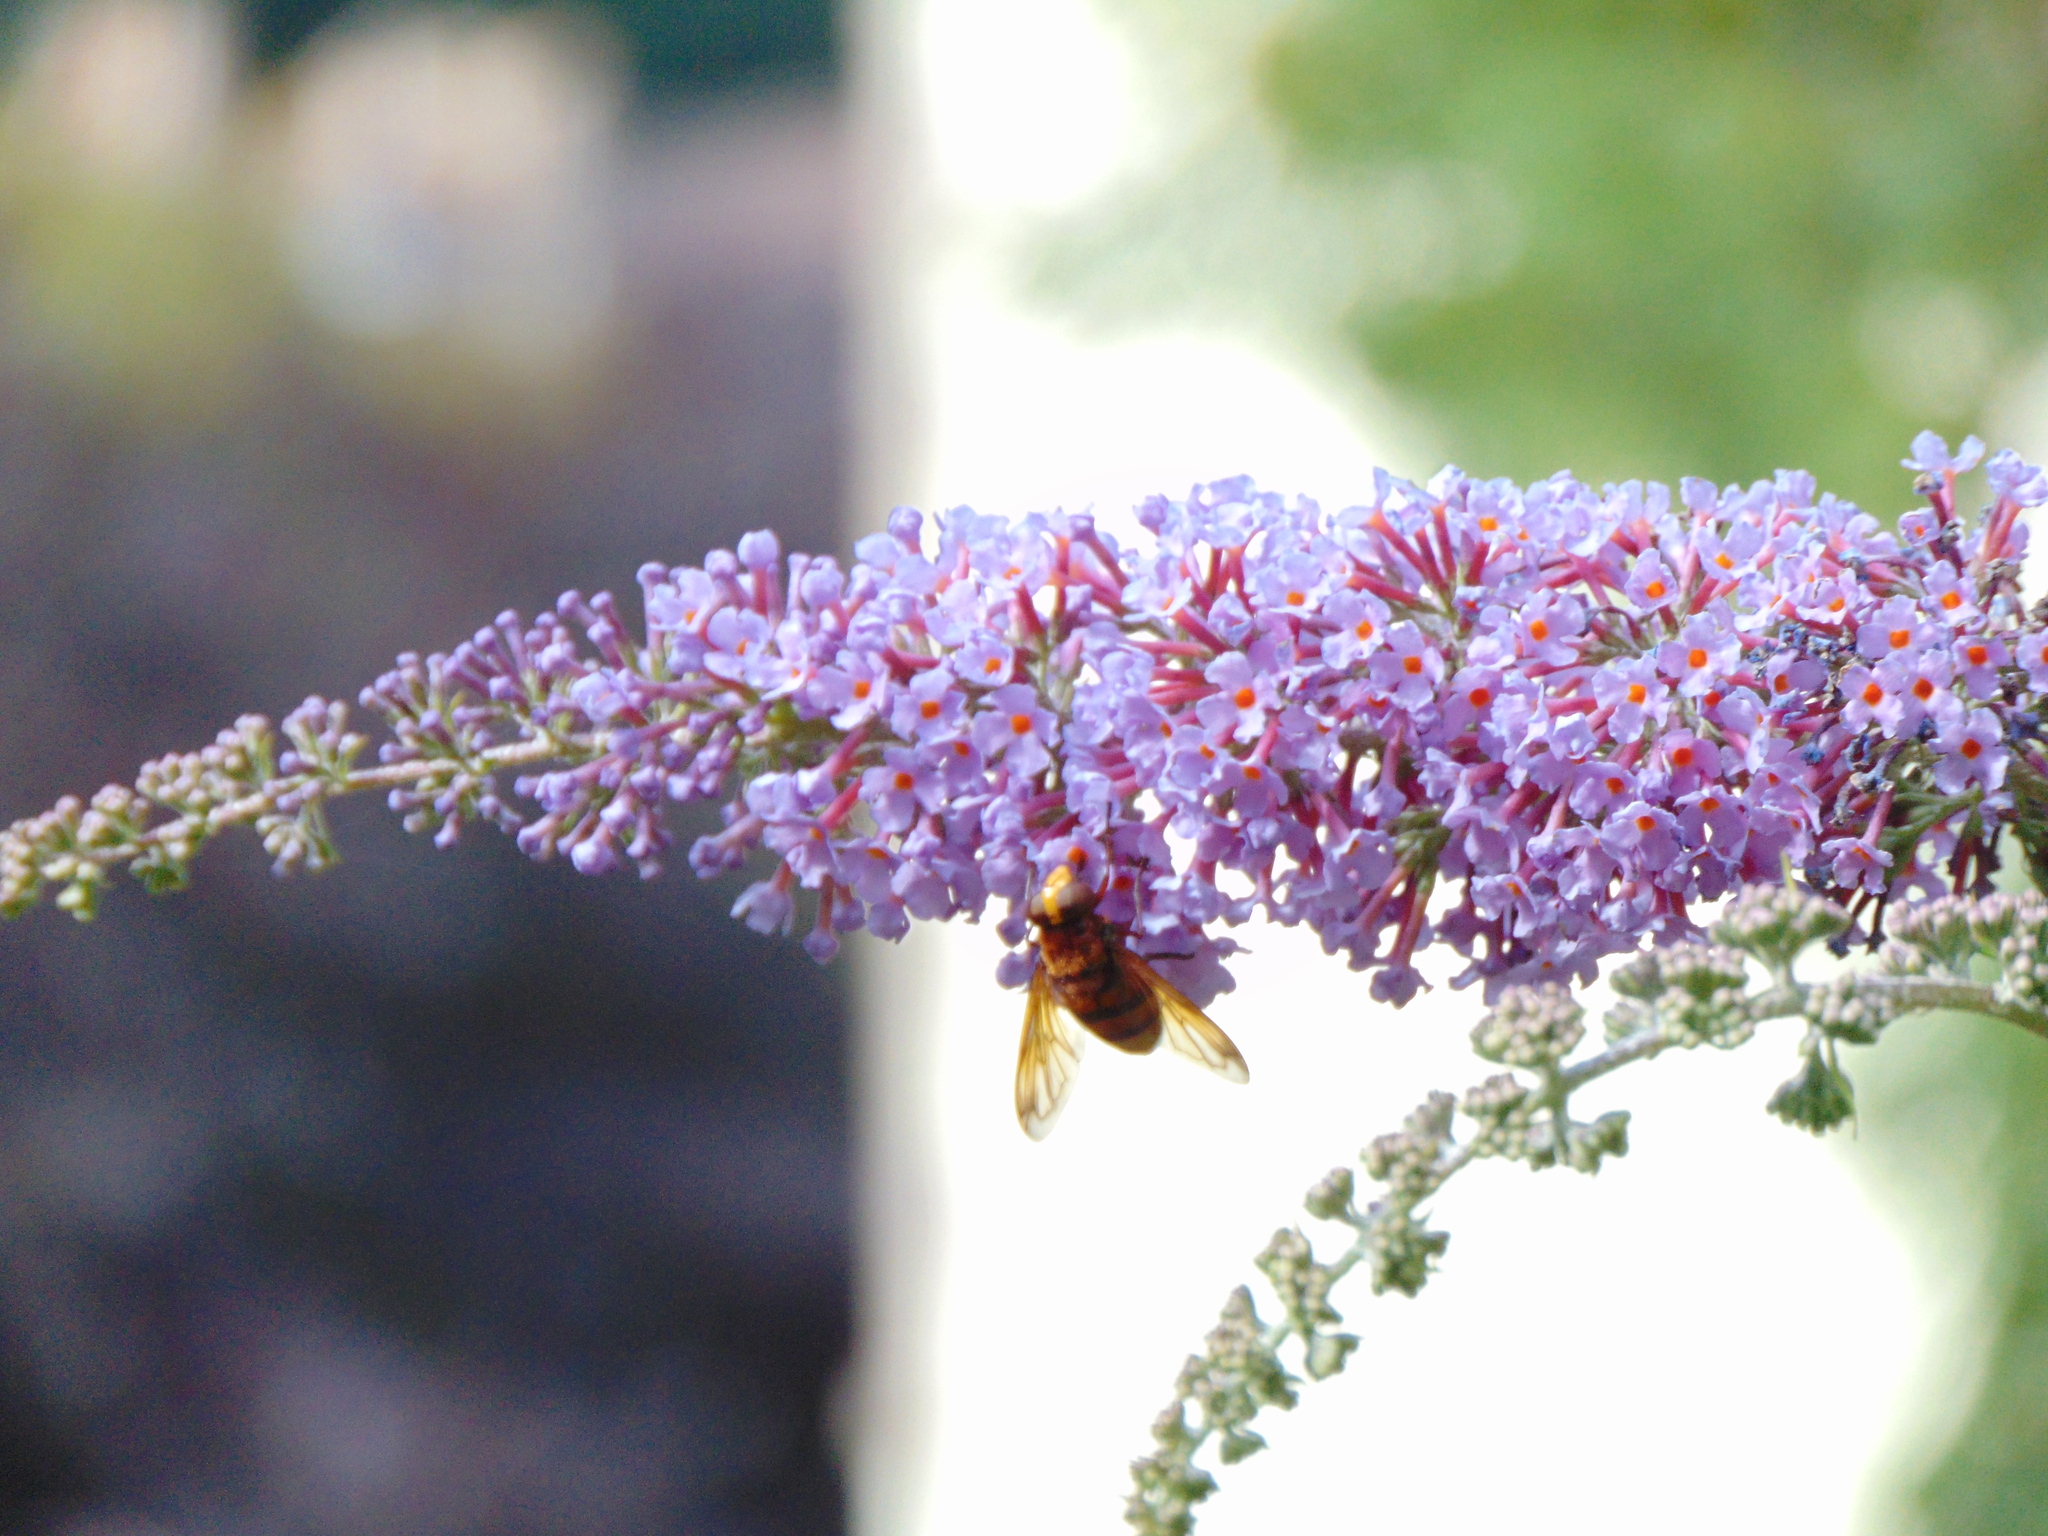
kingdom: Animalia
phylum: Arthropoda
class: Insecta
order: Diptera
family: Syrphidae
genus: Volucella
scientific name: Volucella zonaria
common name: Hornet hoverfly
